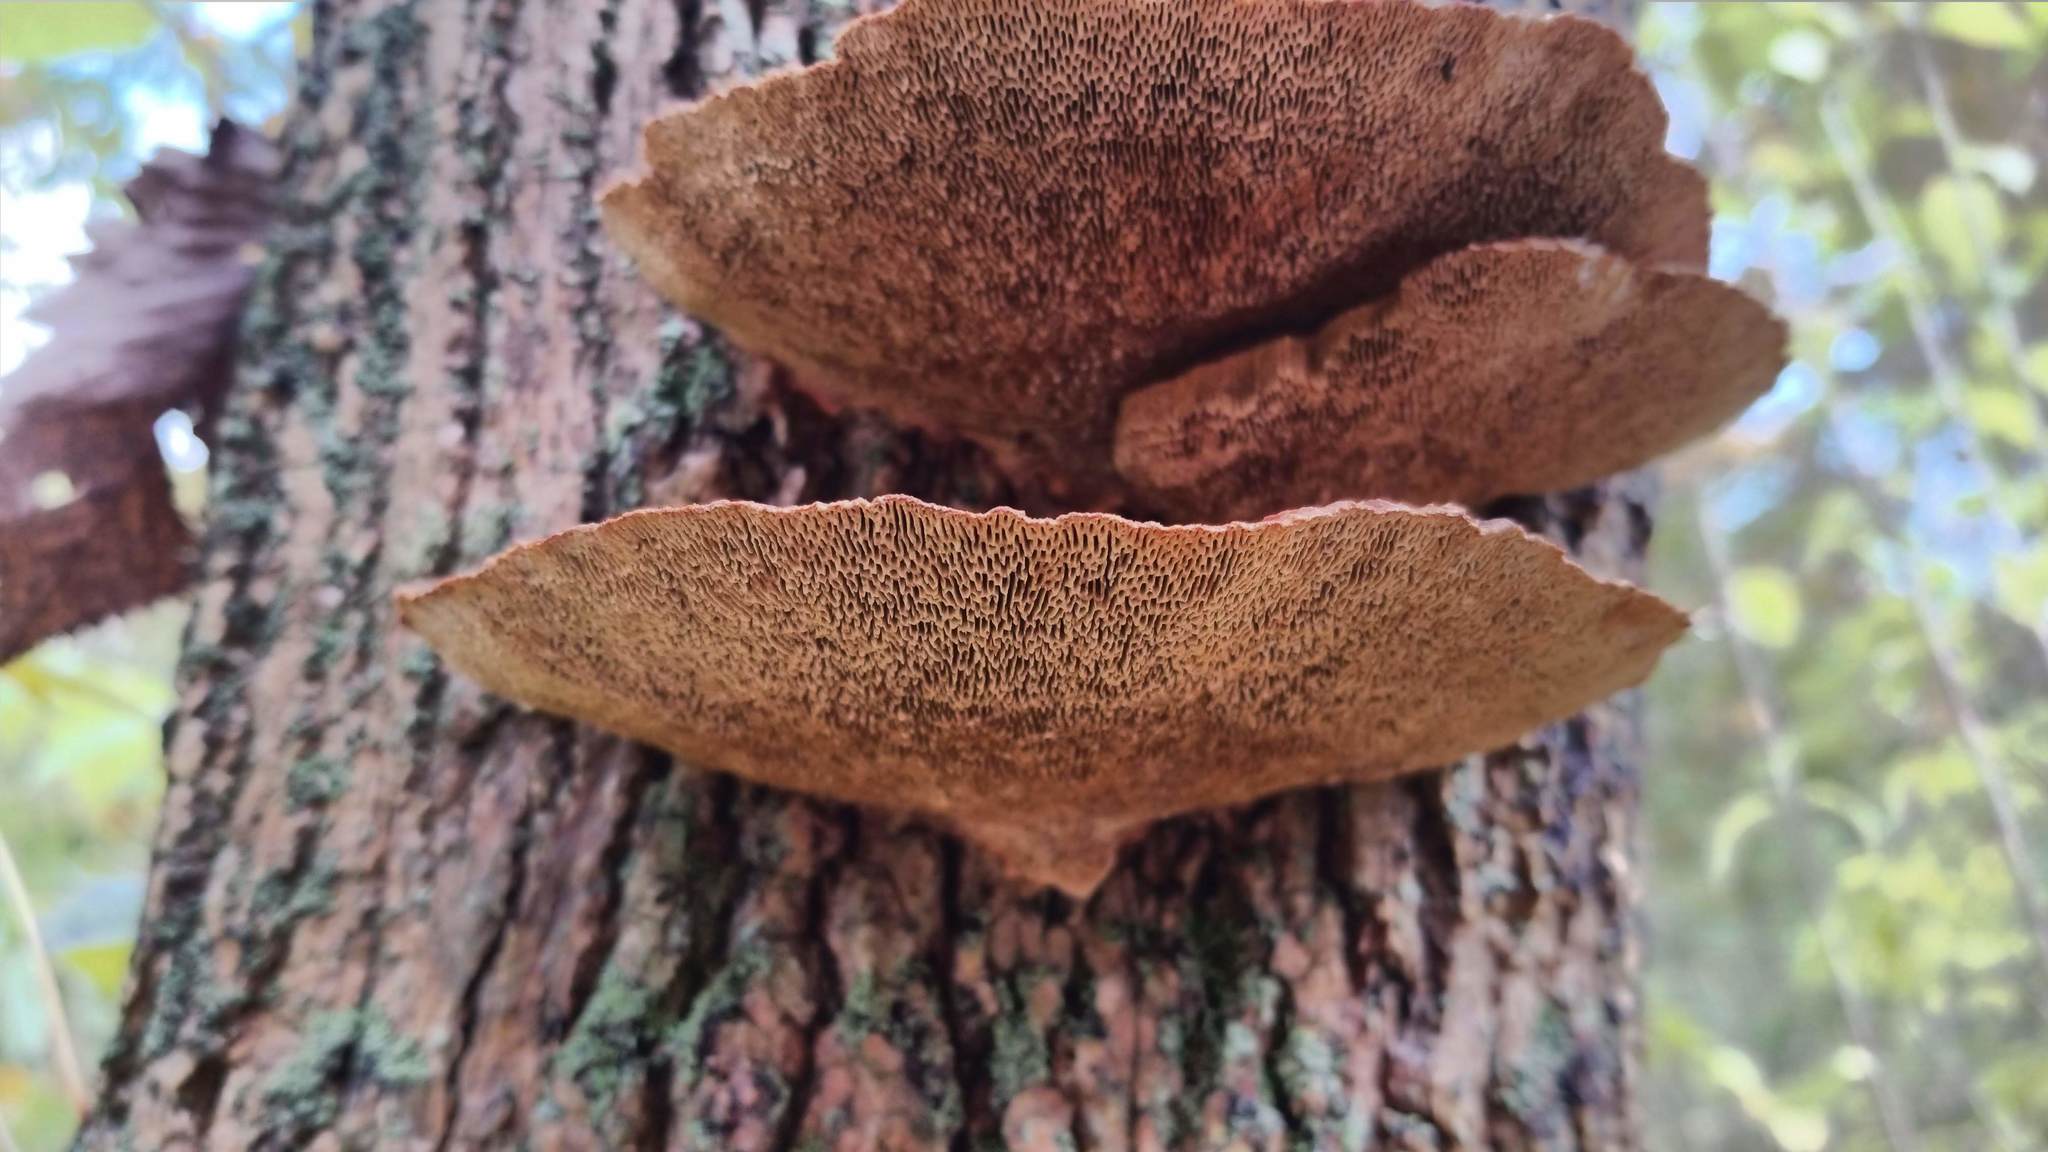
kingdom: Fungi
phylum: Basidiomycota
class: Agaricomycetes
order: Polyporales
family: Polyporaceae
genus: Daedaleopsis
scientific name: Daedaleopsis confragosa
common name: Blushing bracket
